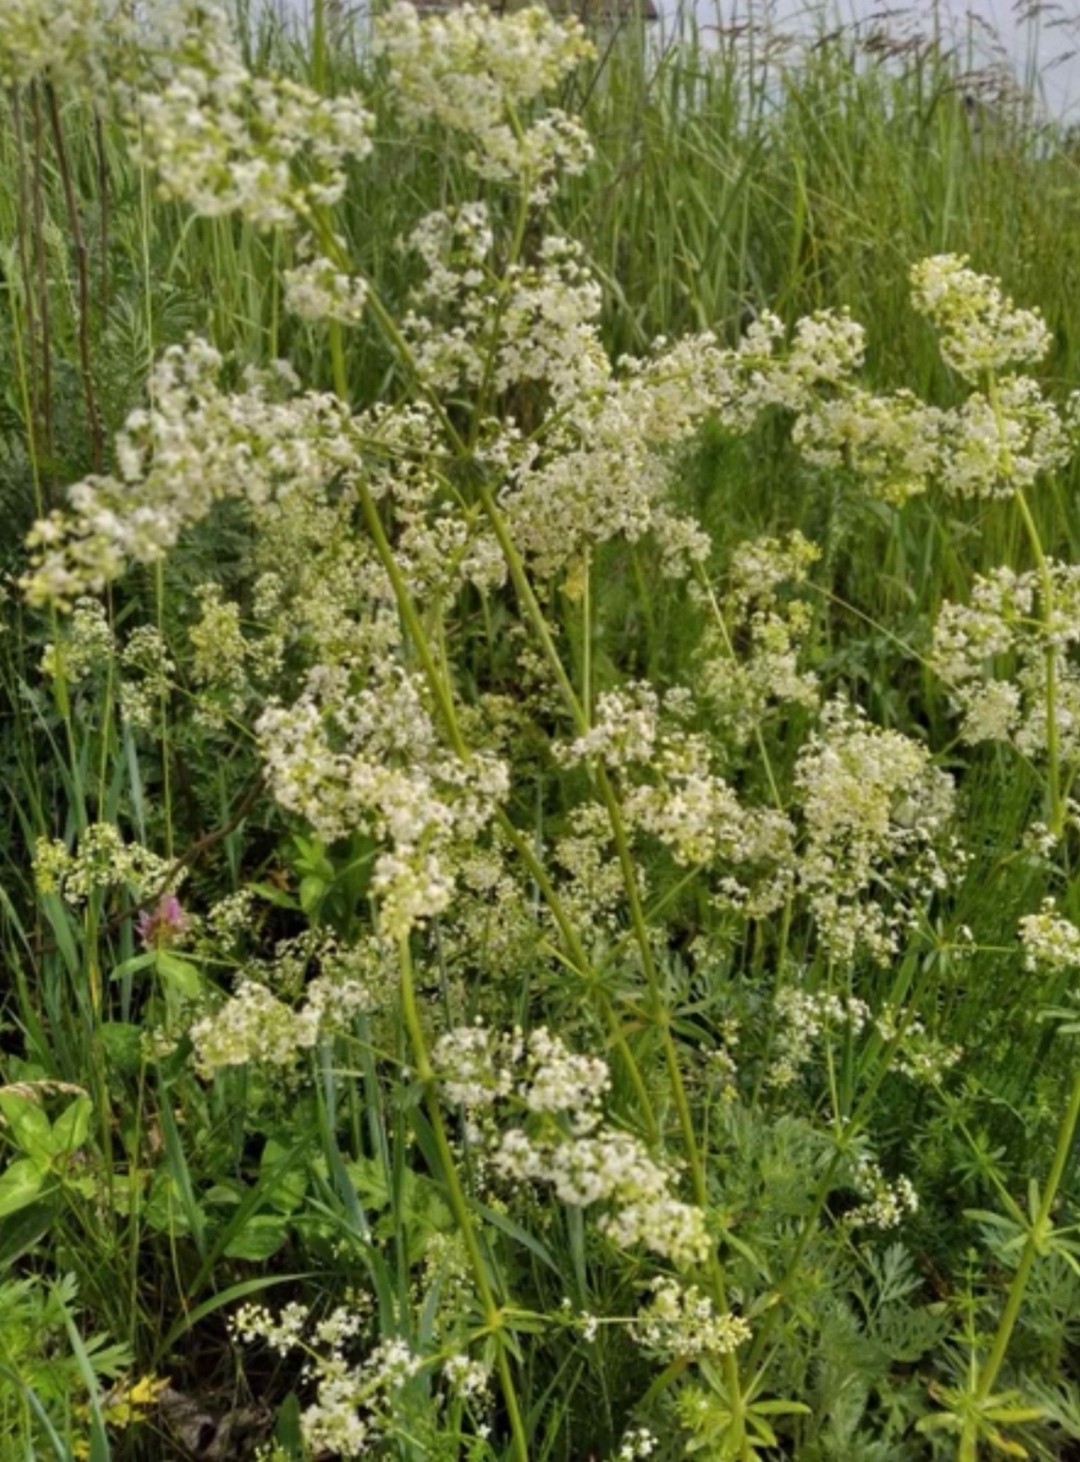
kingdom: Plantae
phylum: Tracheophyta
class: Magnoliopsida
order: Gentianales
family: Rubiaceae
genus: Galium
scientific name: Galium mollugo
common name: Hedge bedstraw
